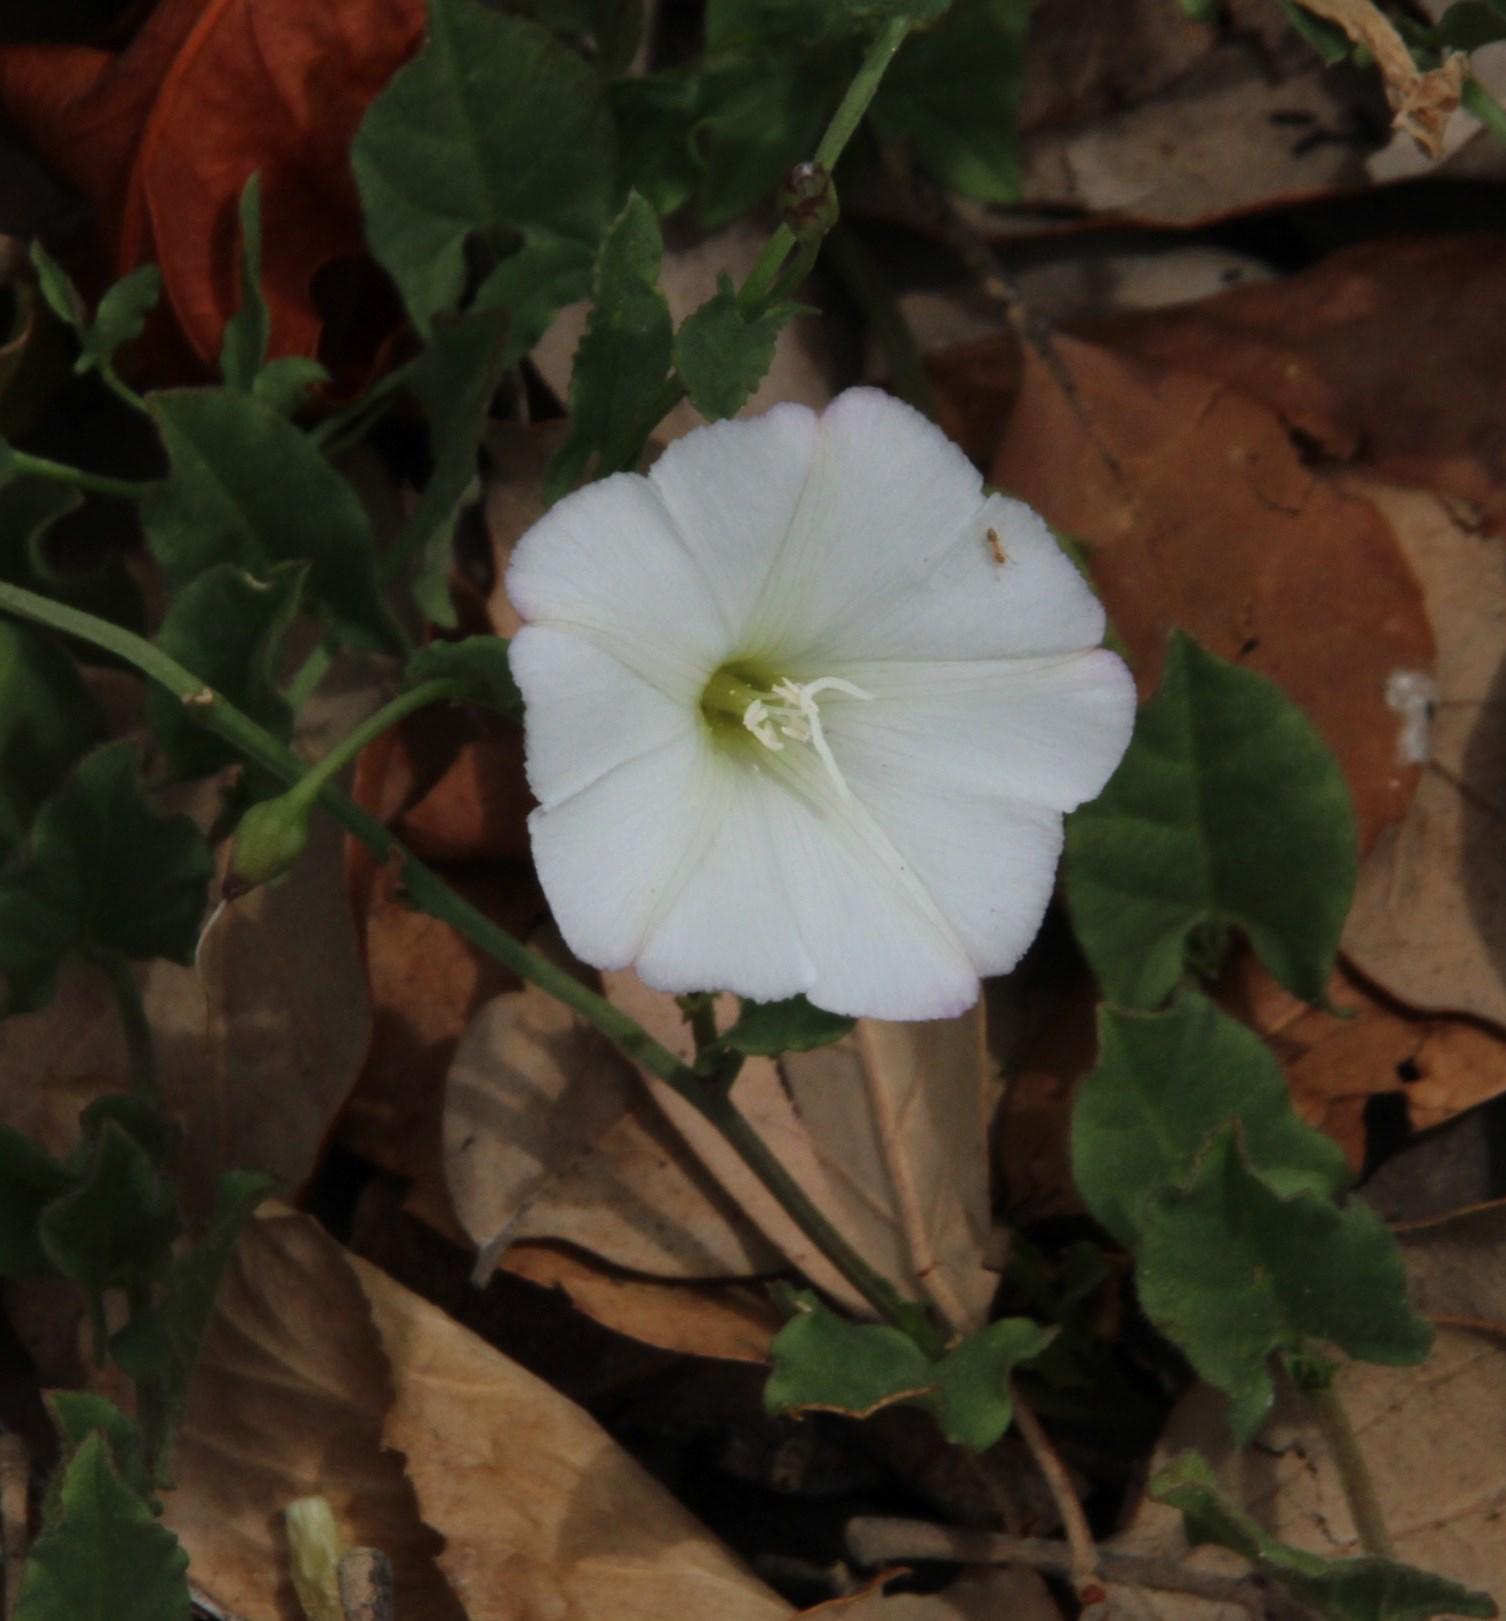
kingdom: Plantae
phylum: Tracheophyta
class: Magnoliopsida
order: Solanales
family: Convolvulaceae
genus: Convolvulus
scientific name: Convolvulus arvensis
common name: Field bindweed
